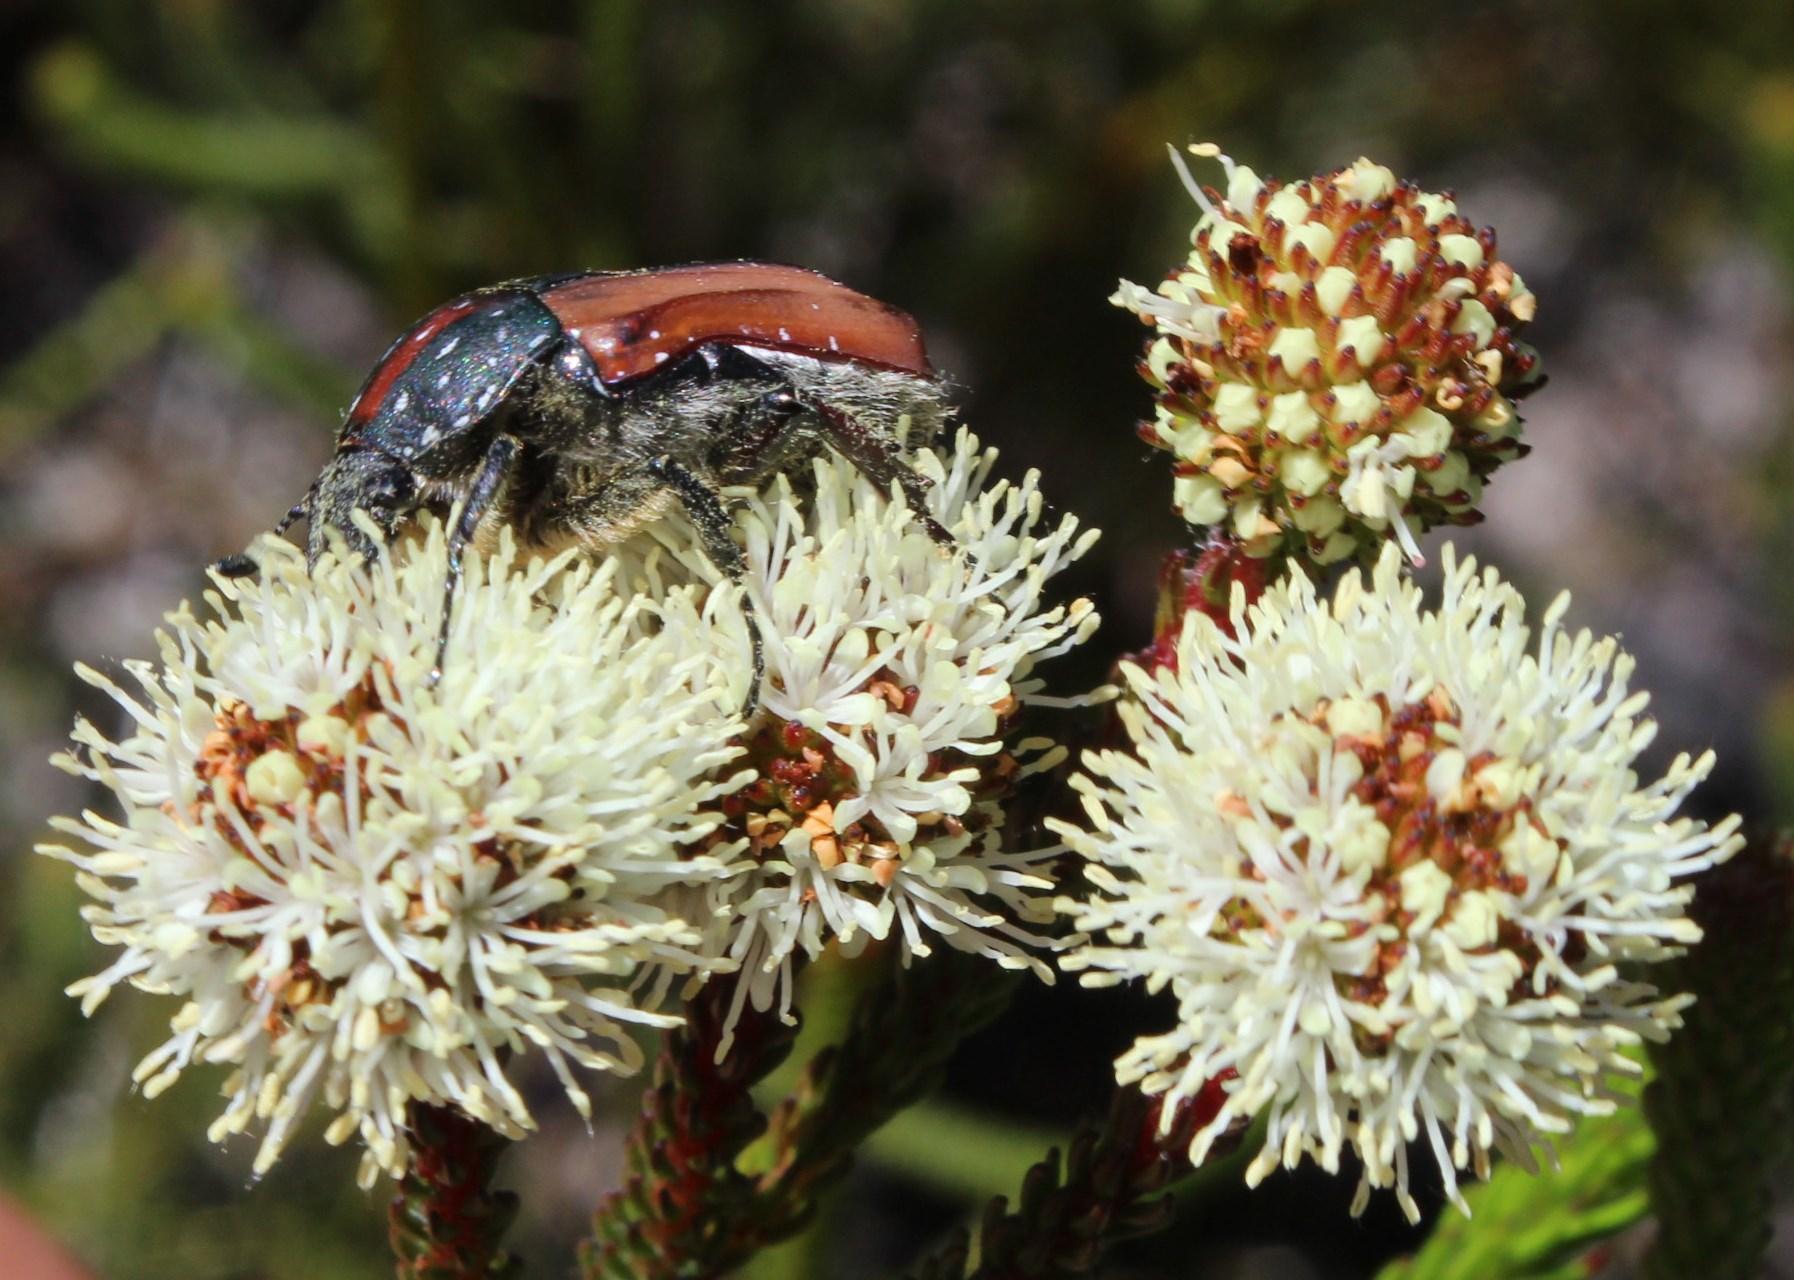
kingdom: Animalia
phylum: Arthropoda
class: Insecta
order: Coleoptera
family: Scarabaeidae
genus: Trichostetha
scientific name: Trichostetha capensis
